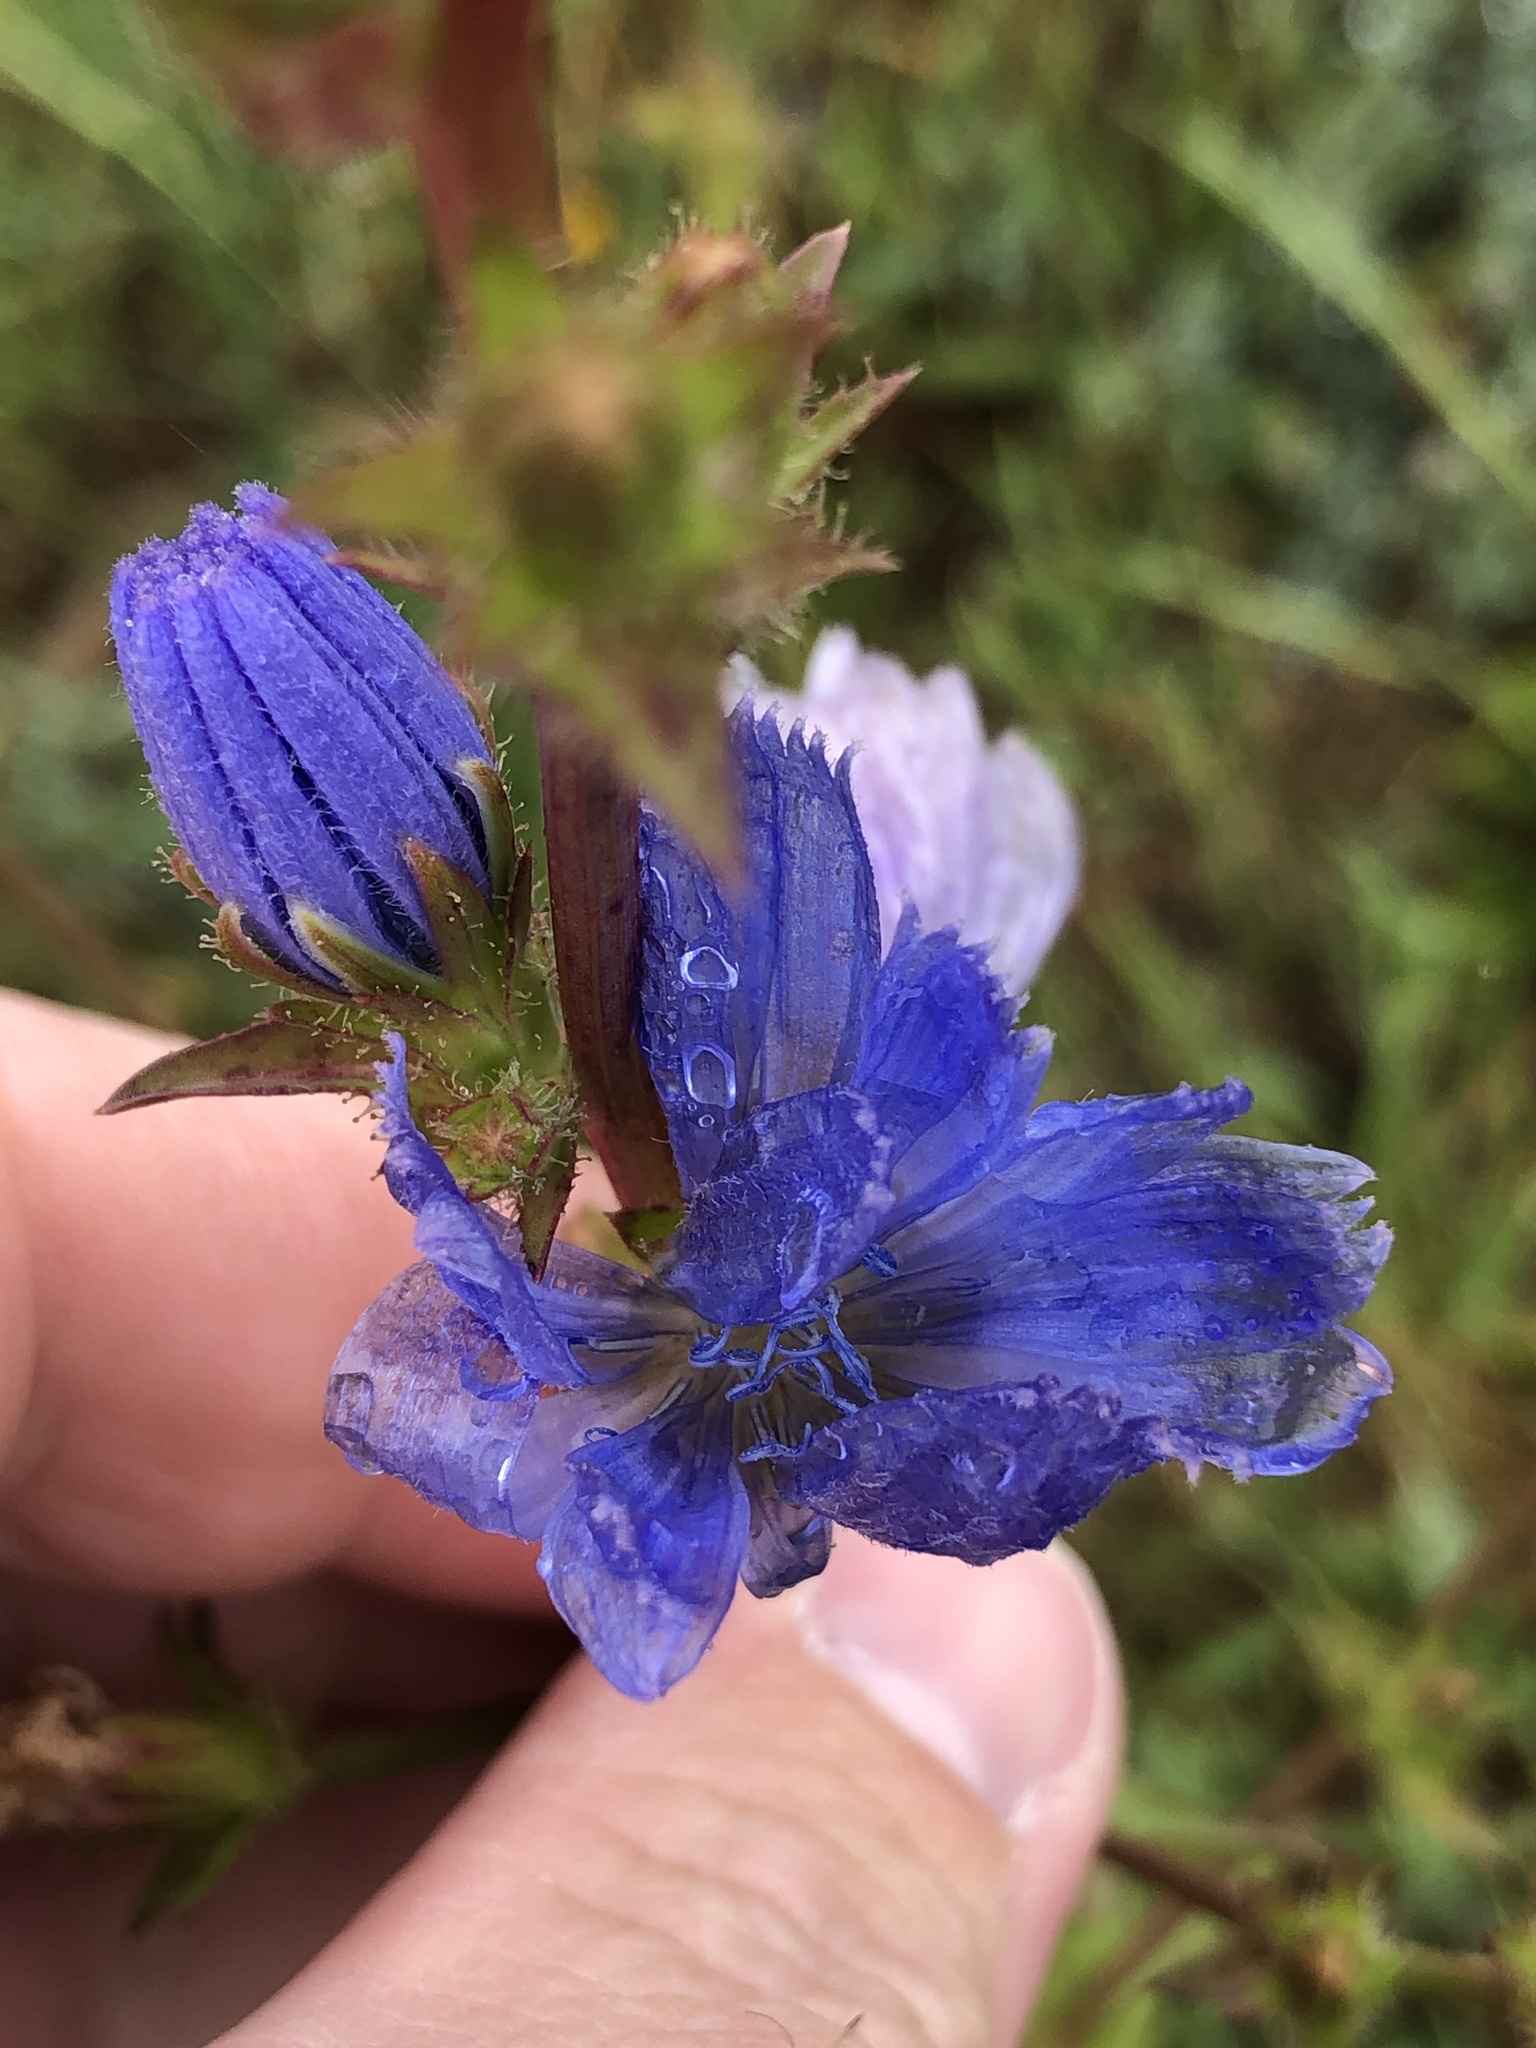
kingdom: Plantae
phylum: Tracheophyta
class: Magnoliopsida
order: Asterales
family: Asteraceae
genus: Cichorium
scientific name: Cichorium intybus
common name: Chicory
